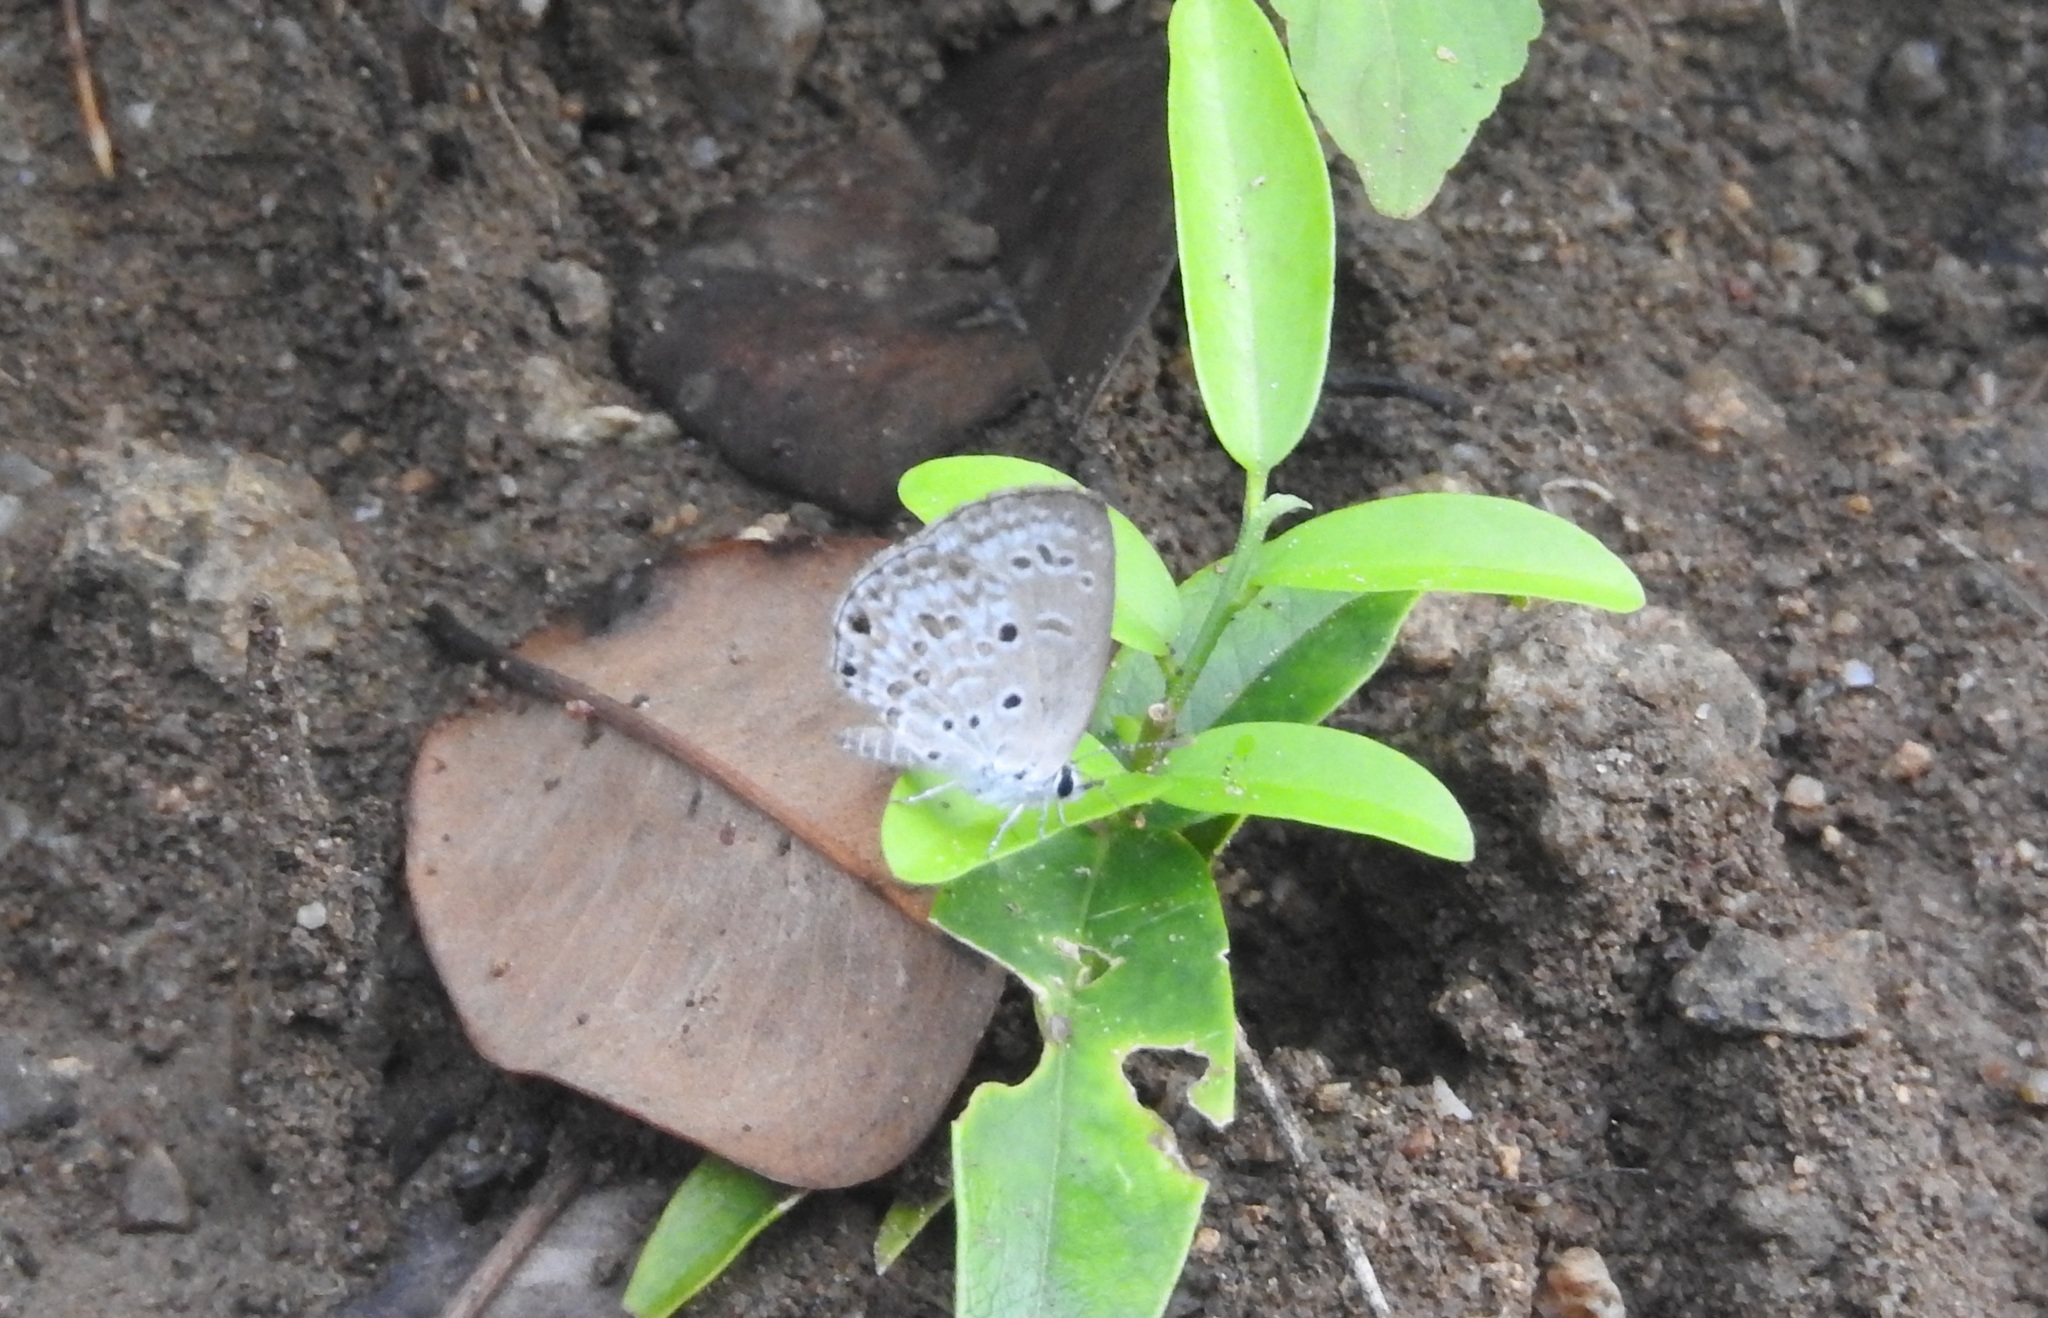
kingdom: Animalia
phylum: Arthropoda
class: Insecta
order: Lepidoptera
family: Lycaenidae
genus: Chilades
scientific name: Chilades laius
